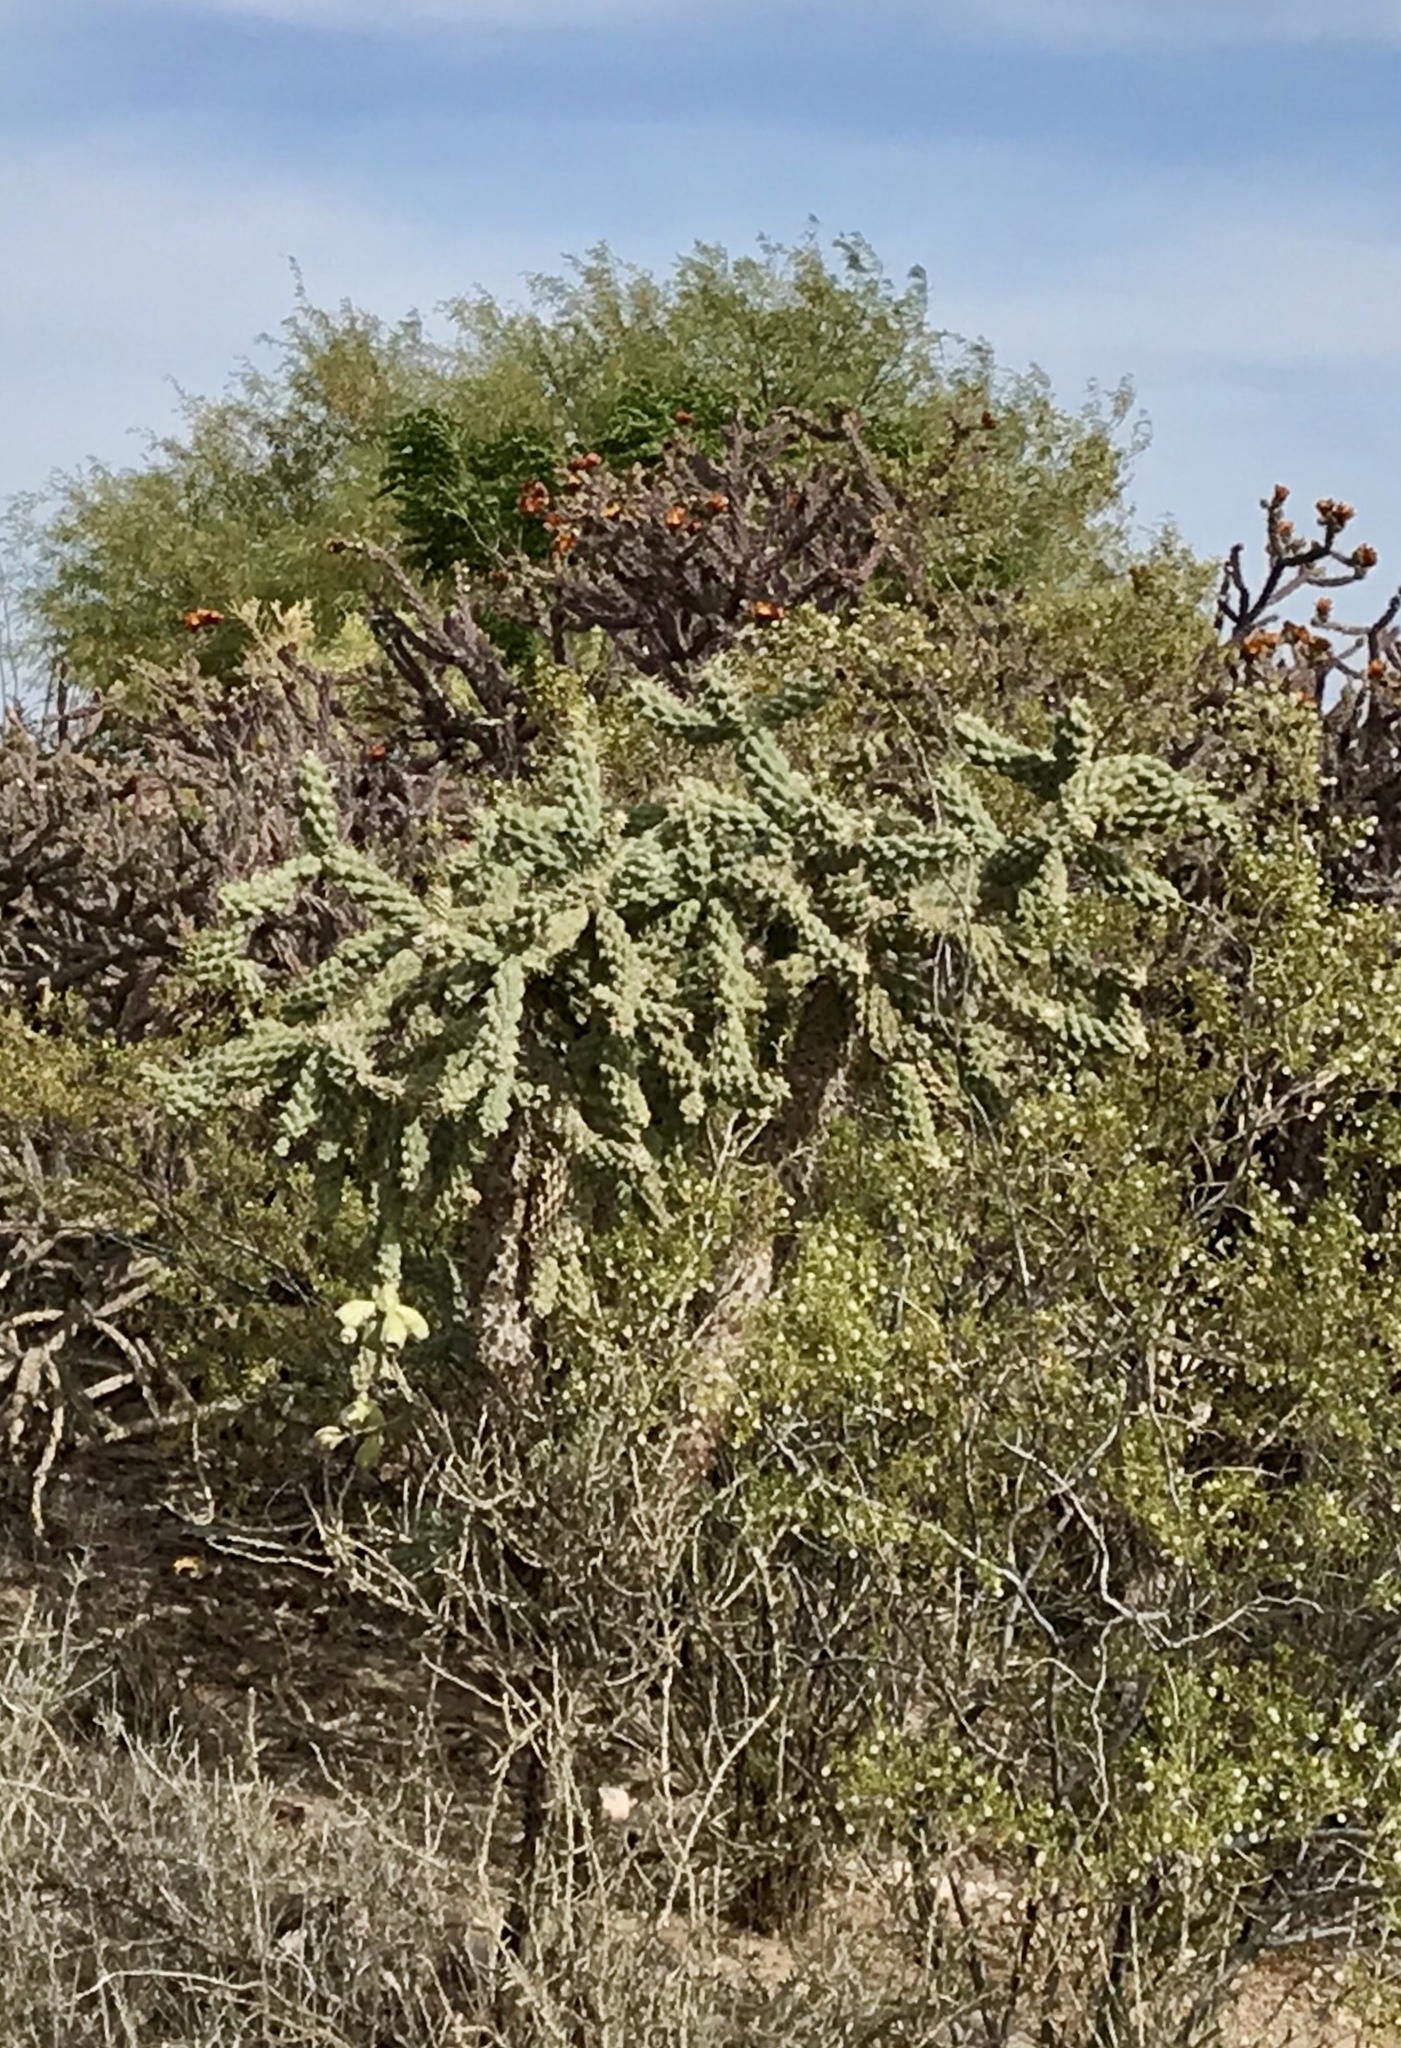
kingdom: Plantae
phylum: Tracheophyta
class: Magnoliopsida
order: Caryophyllales
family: Cactaceae
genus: Cylindropuntia
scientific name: Cylindropuntia fulgida
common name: Jumping cholla
